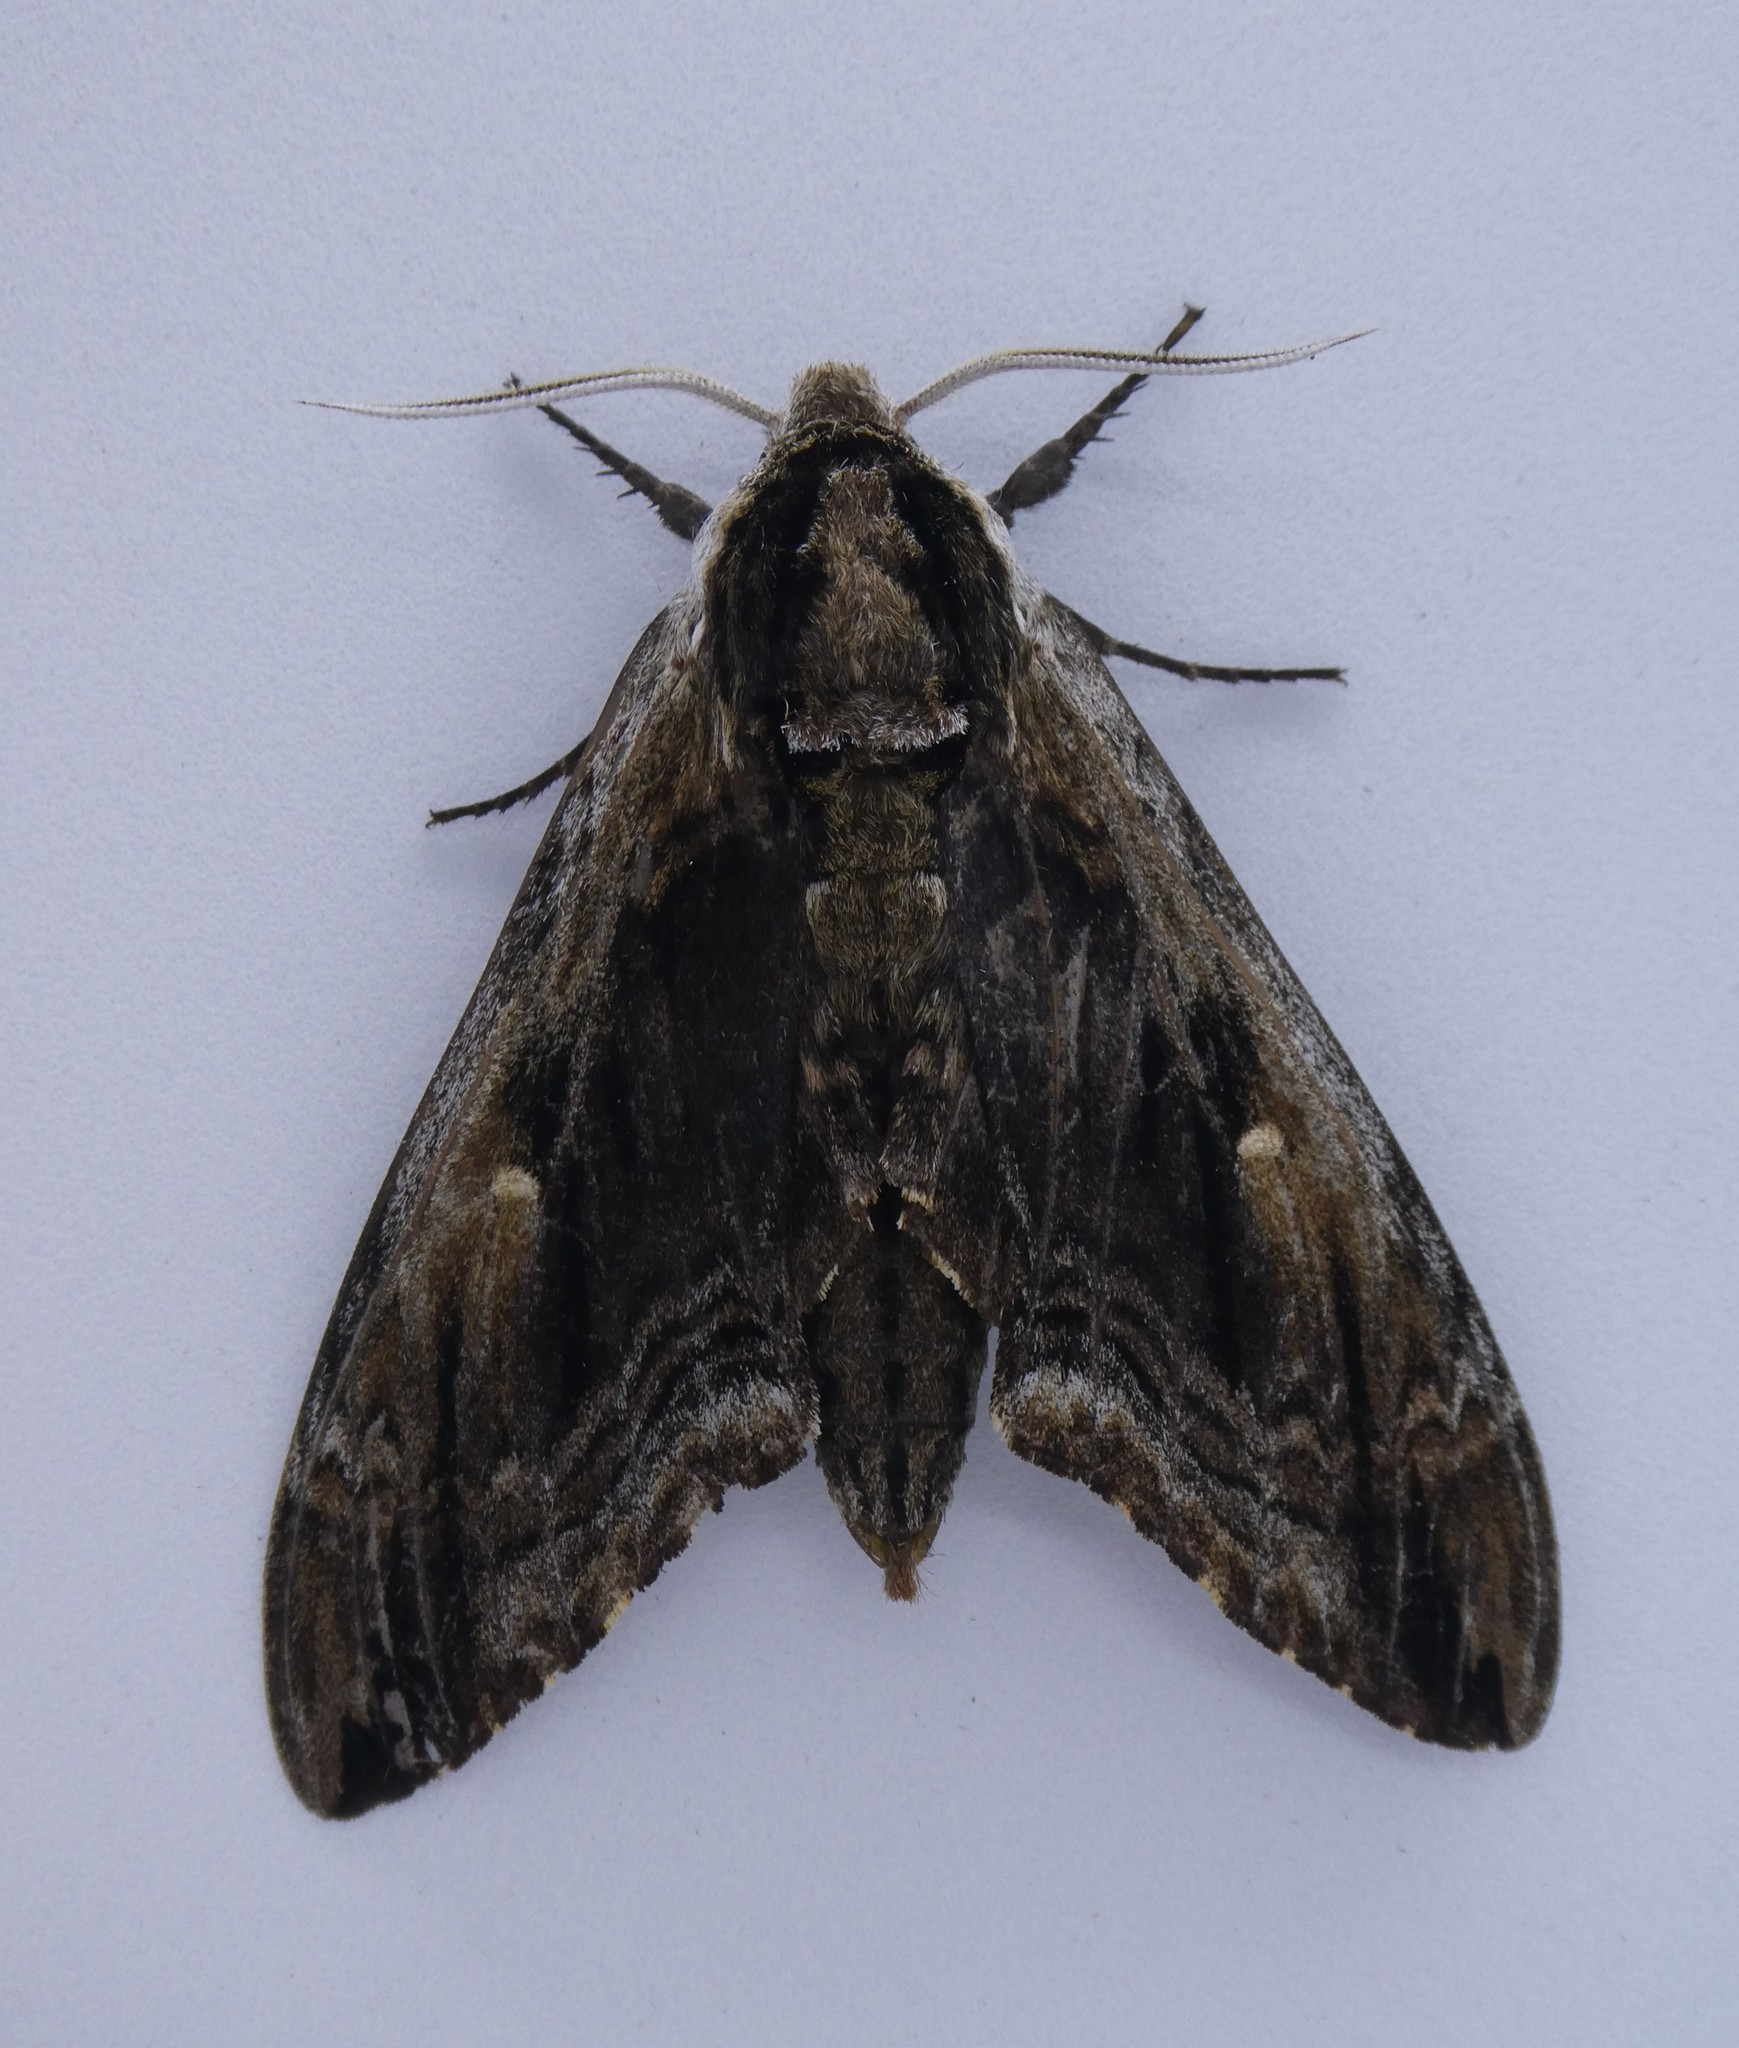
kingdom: Animalia
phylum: Arthropoda
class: Insecta
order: Lepidoptera
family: Sphingidae
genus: Ceratomia
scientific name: Ceratomia amyntor
